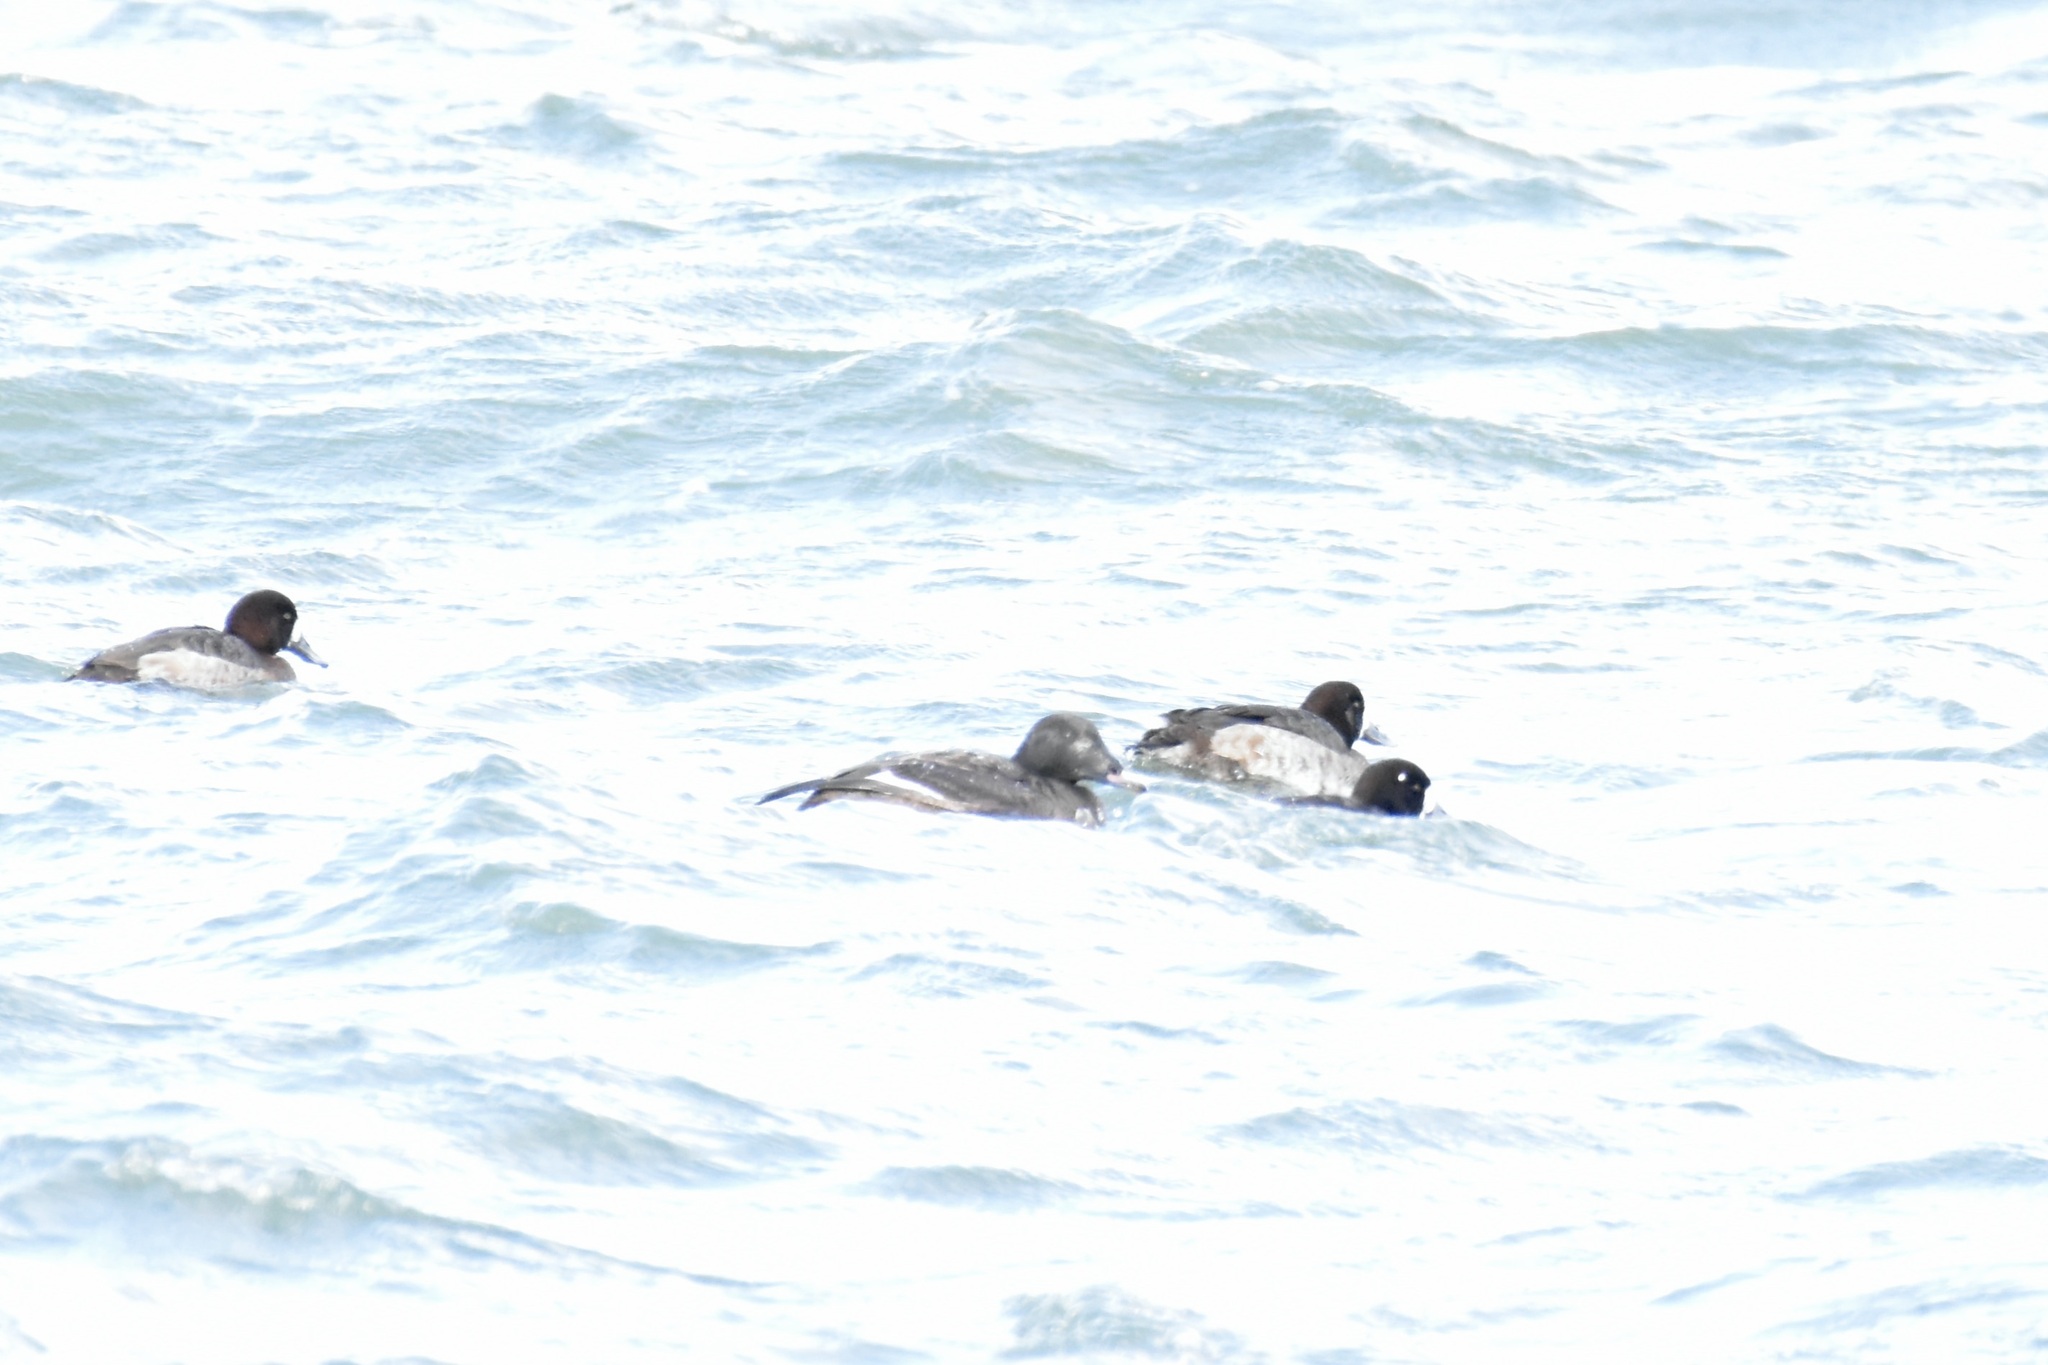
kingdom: Animalia
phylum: Chordata
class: Aves
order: Anseriformes
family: Anatidae
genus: Melanitta
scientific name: Melanitta deglandi
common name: White-winged scoter
